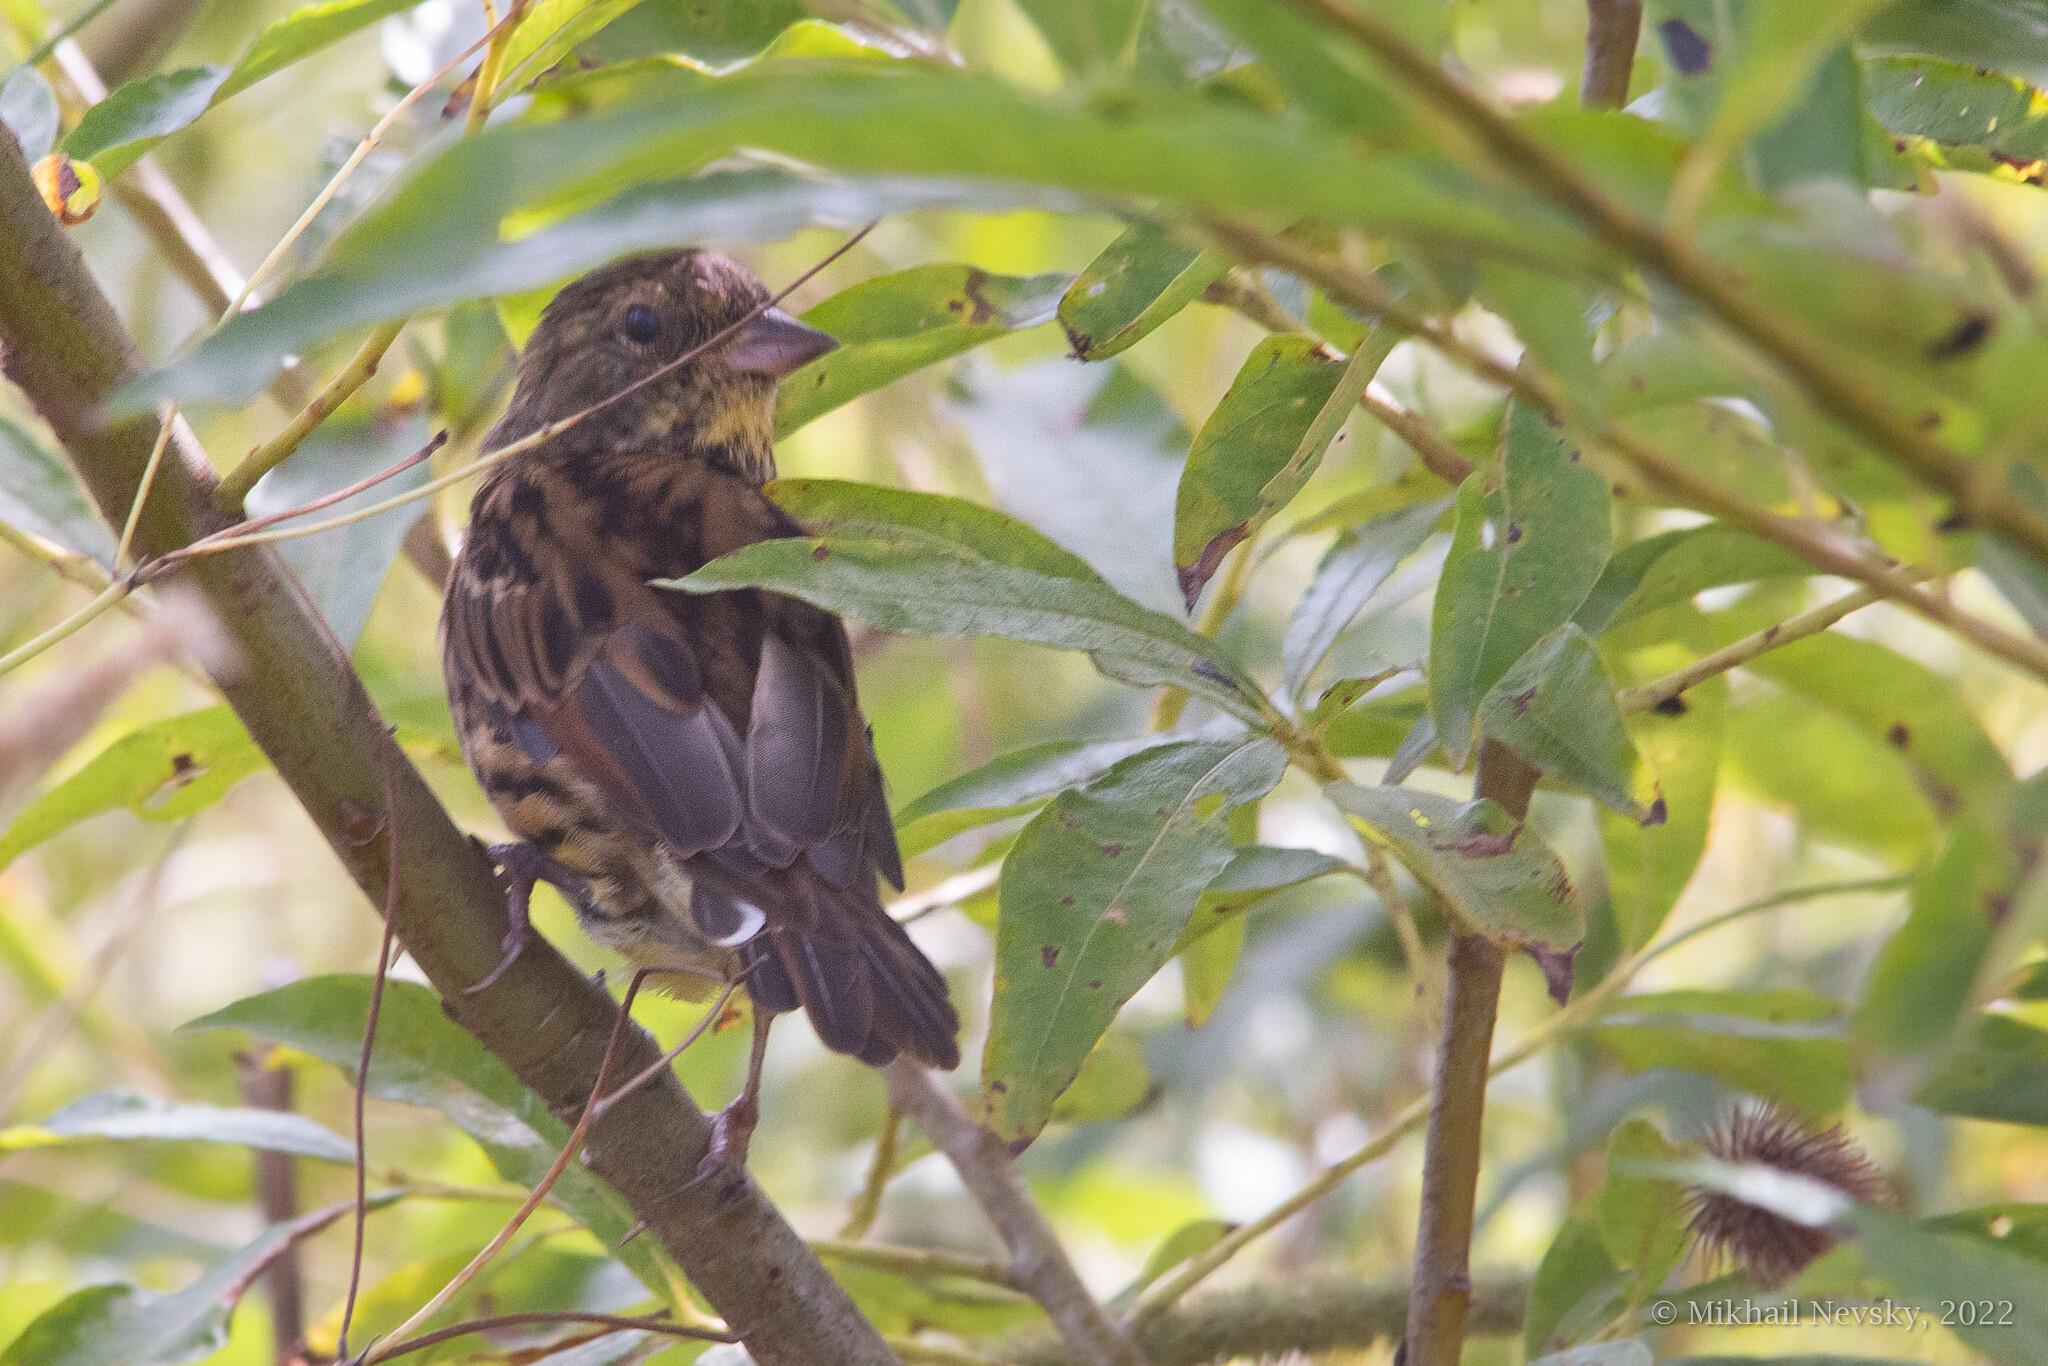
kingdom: Animalia
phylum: Chordata
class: Aves
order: Passeriformes
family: Emberizidae
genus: Emberiza
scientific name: Emberiza personata
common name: Masked bunting
